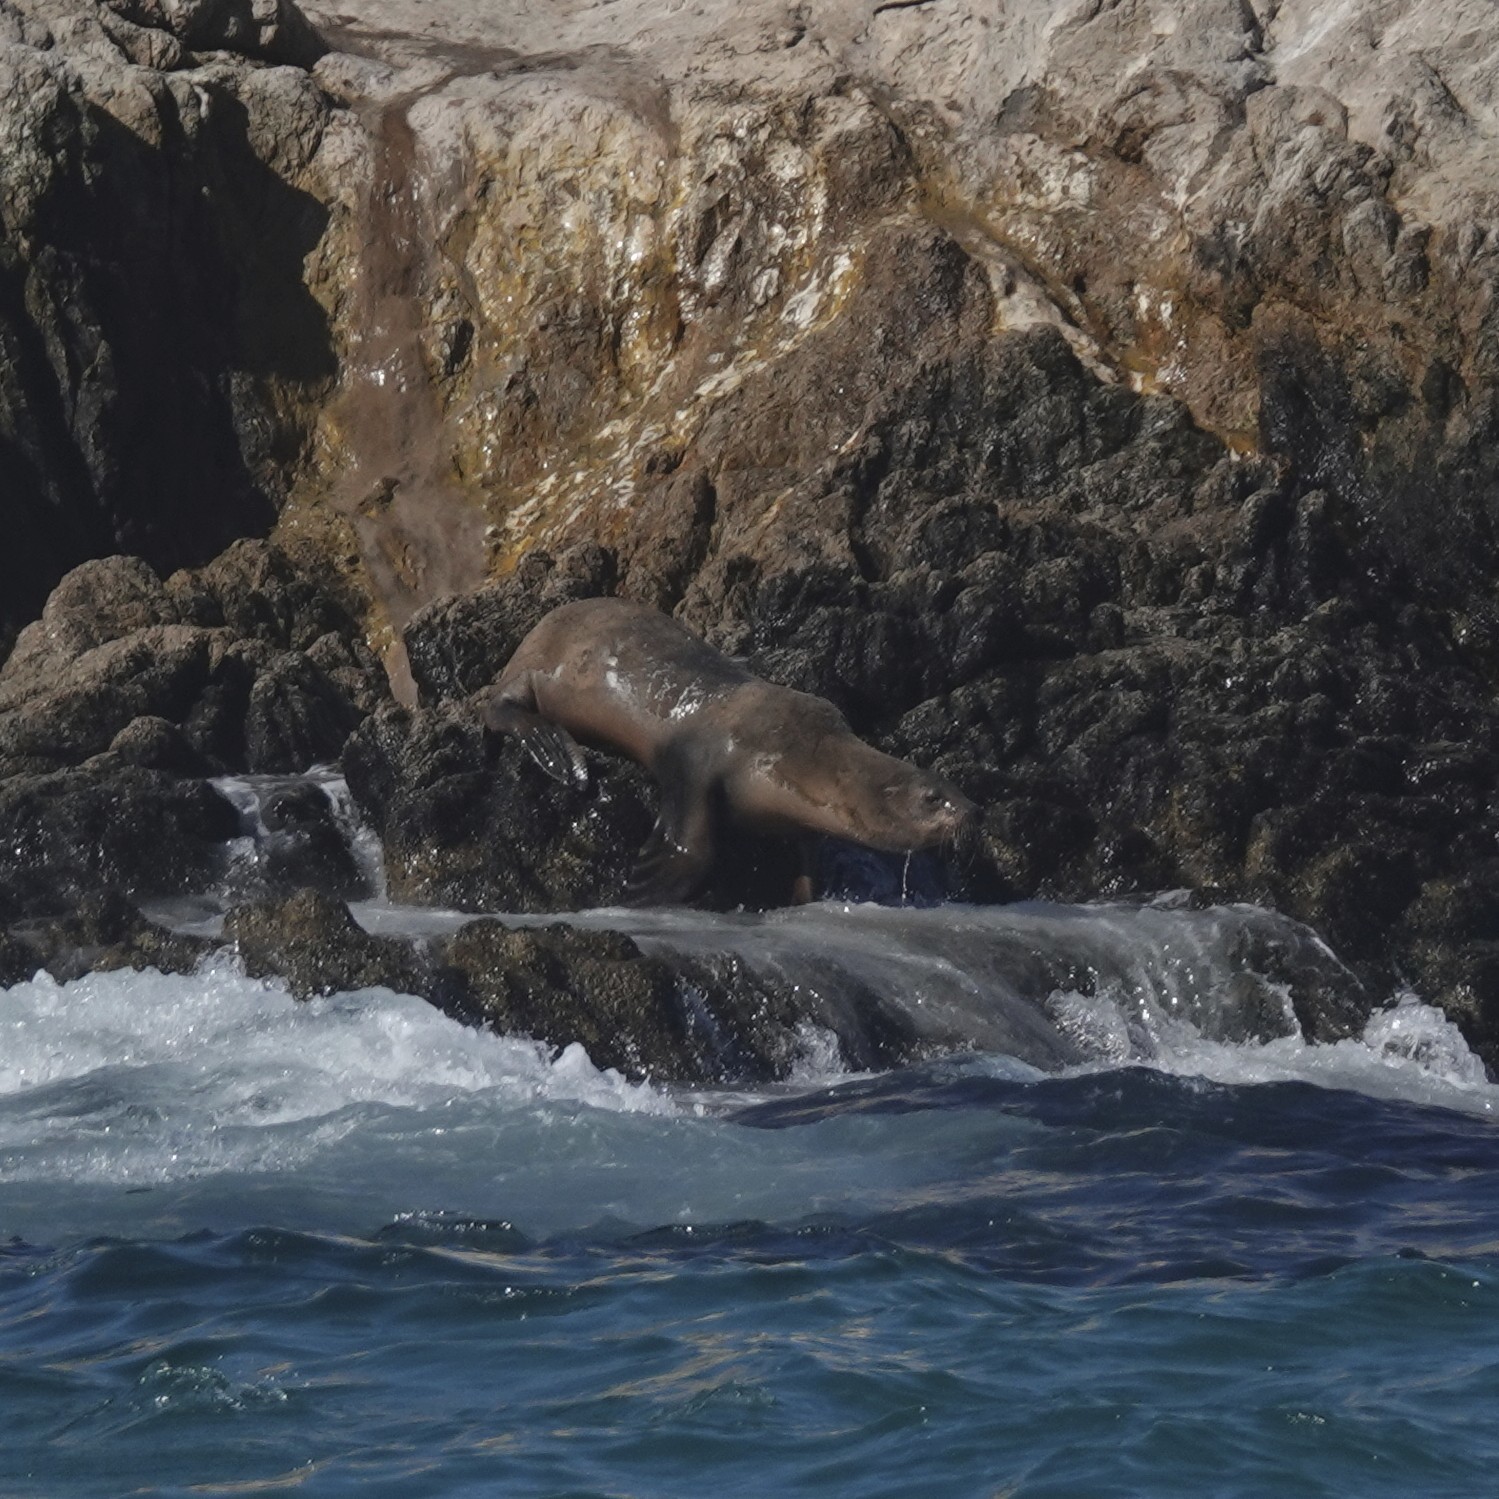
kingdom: Animalia
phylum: Chordata
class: Mammalia
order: Carnivora
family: Otariidae
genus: Zalophus
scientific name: Zalophus californianus
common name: California sea lion
